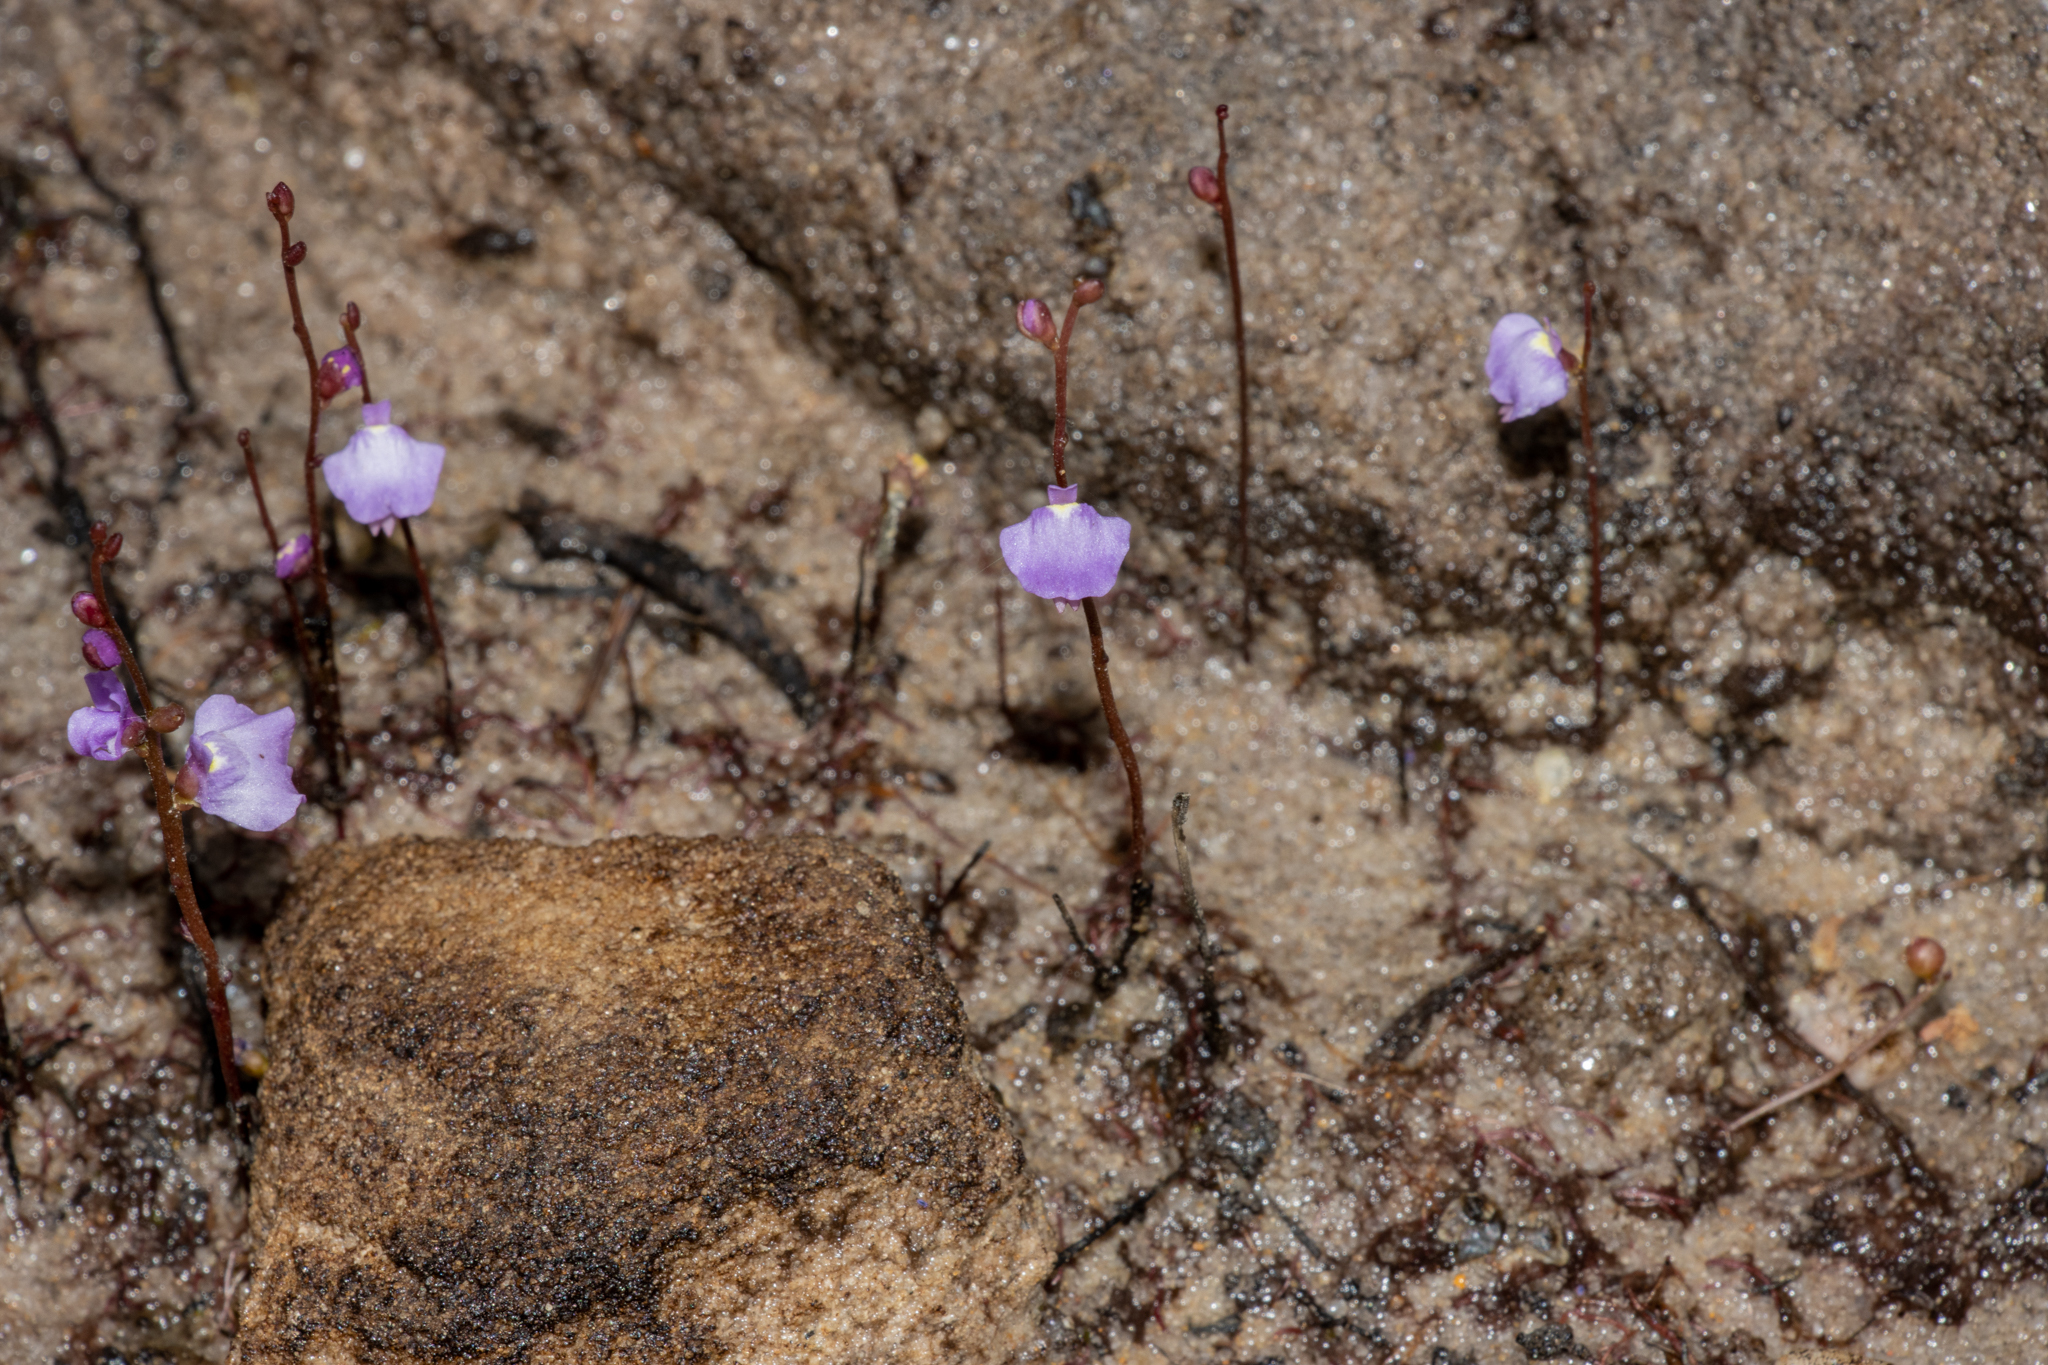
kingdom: Plantae
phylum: Tracheophyta
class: Magnoliopsida
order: Lamiales
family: Lentibulariaceae
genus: Utricularia
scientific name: Utricularia lateriflora
